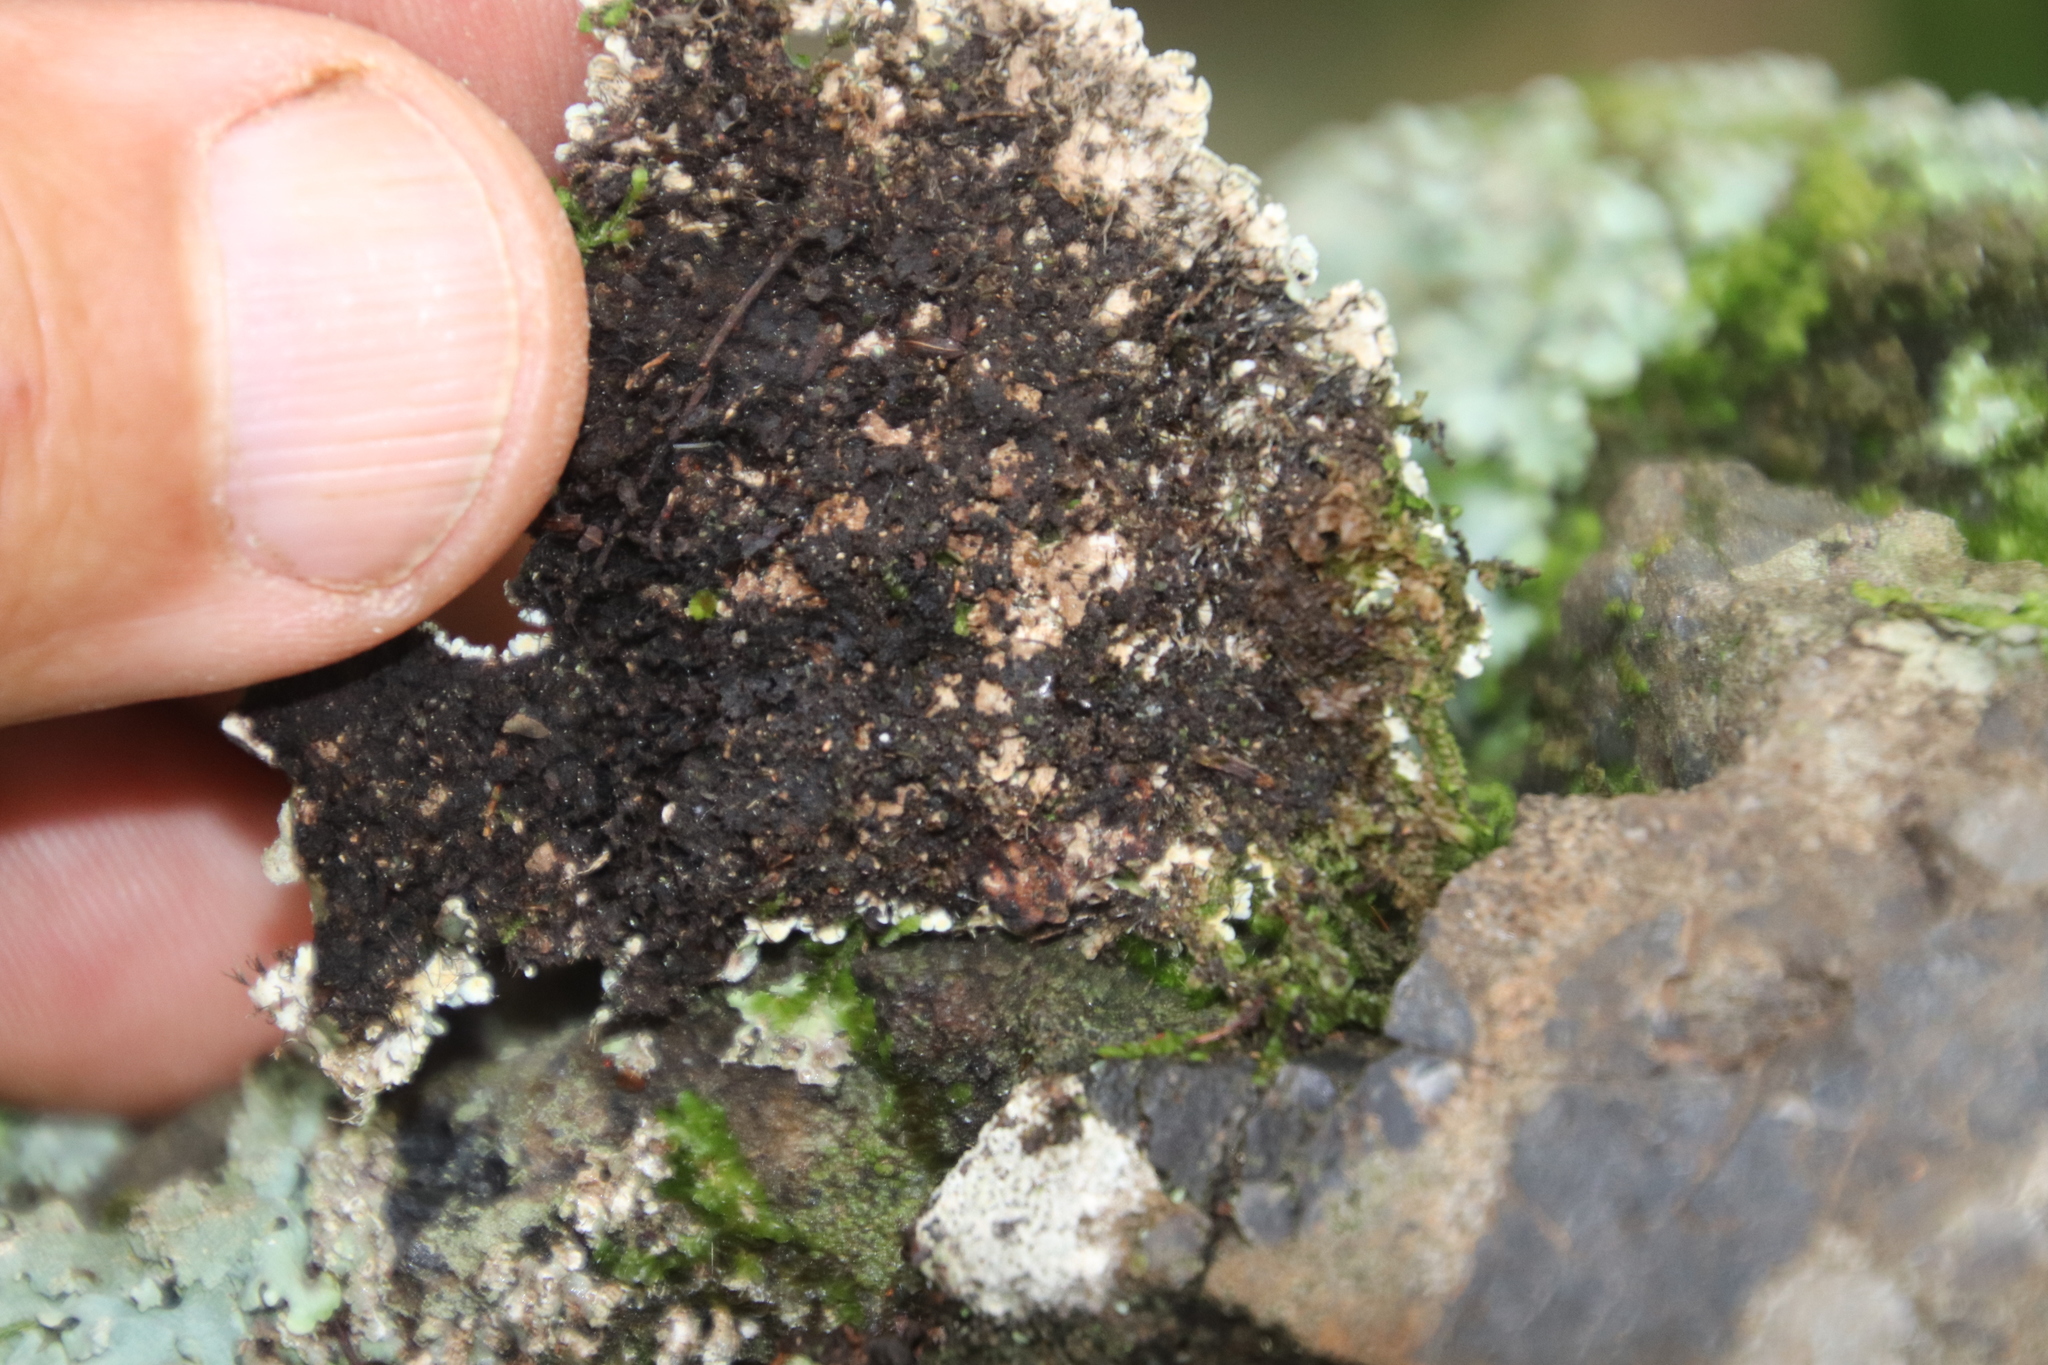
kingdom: Fungi
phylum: Ascomycota
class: Lecanoromycetes
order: Caliciales
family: Physciaceae
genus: Polyblastidium
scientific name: Polyblastidium albicans
